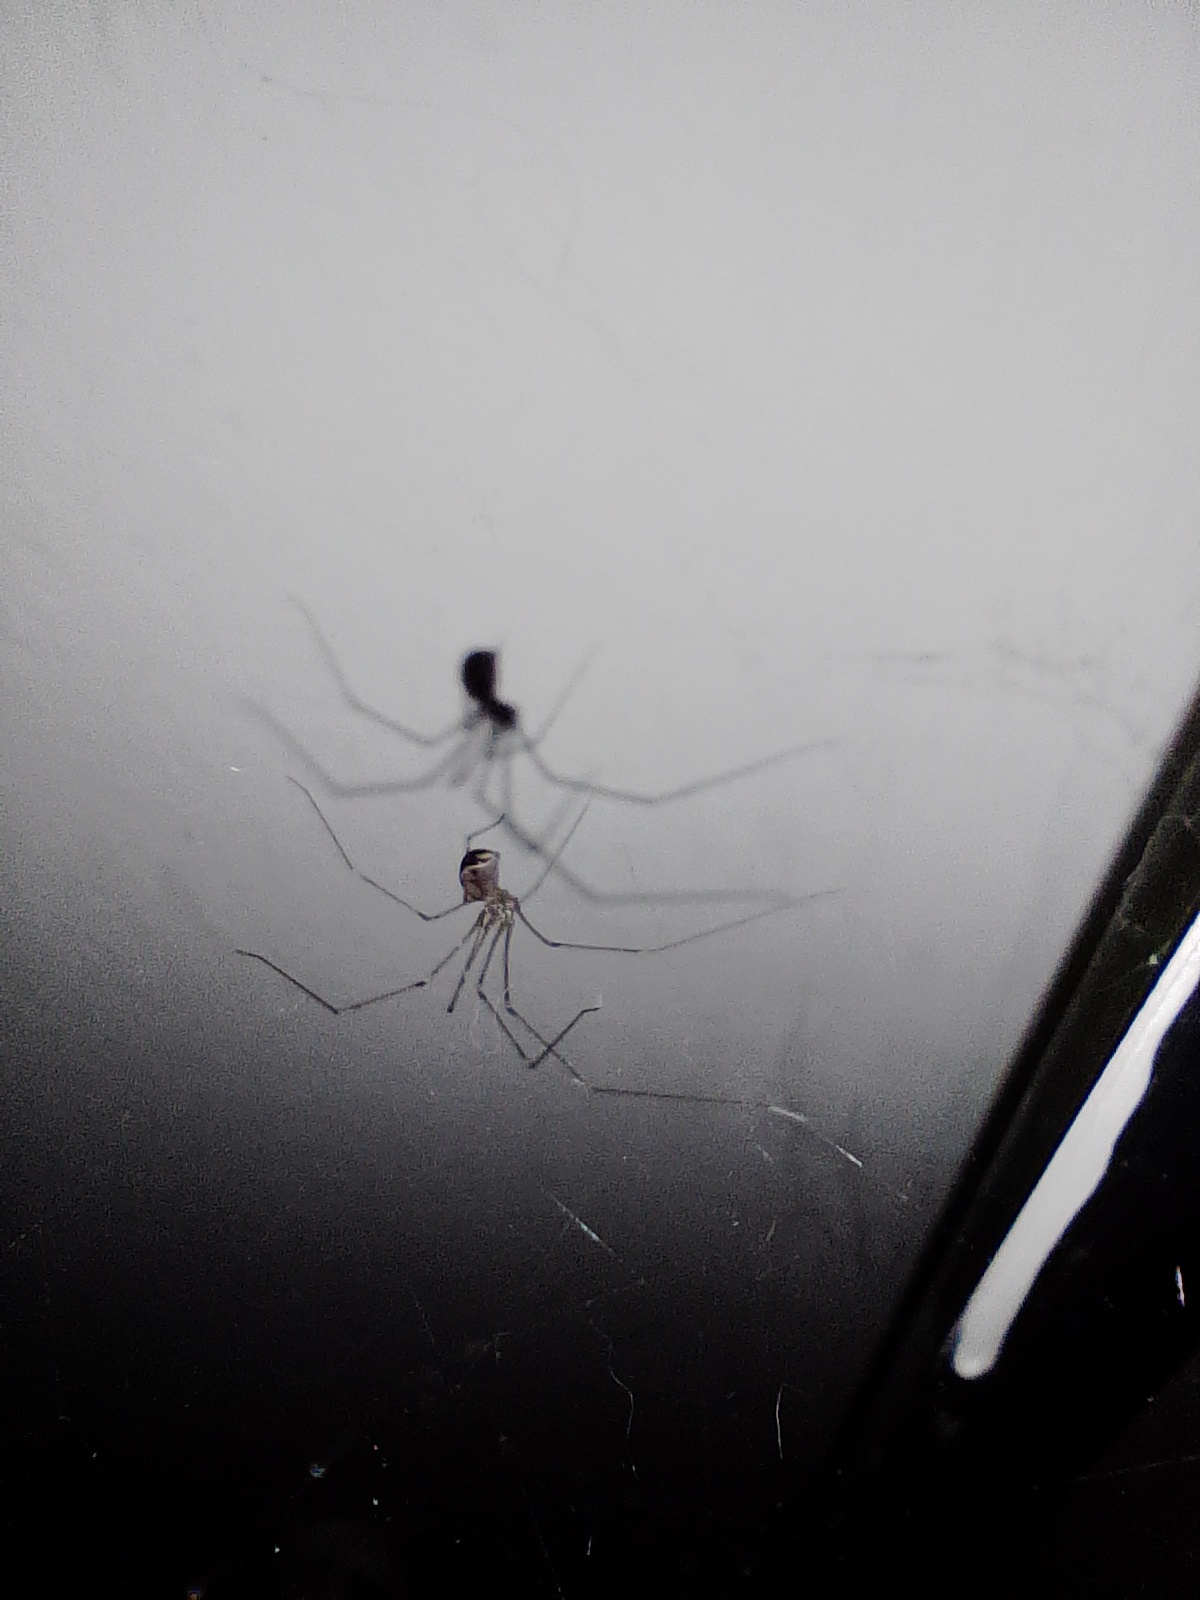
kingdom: Animalia
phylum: Arthropoda
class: Arachnida
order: Araneae
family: Pholcidae
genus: Pholcus
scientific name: Pholcus phalangioides
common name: Longbodied cellar spider
